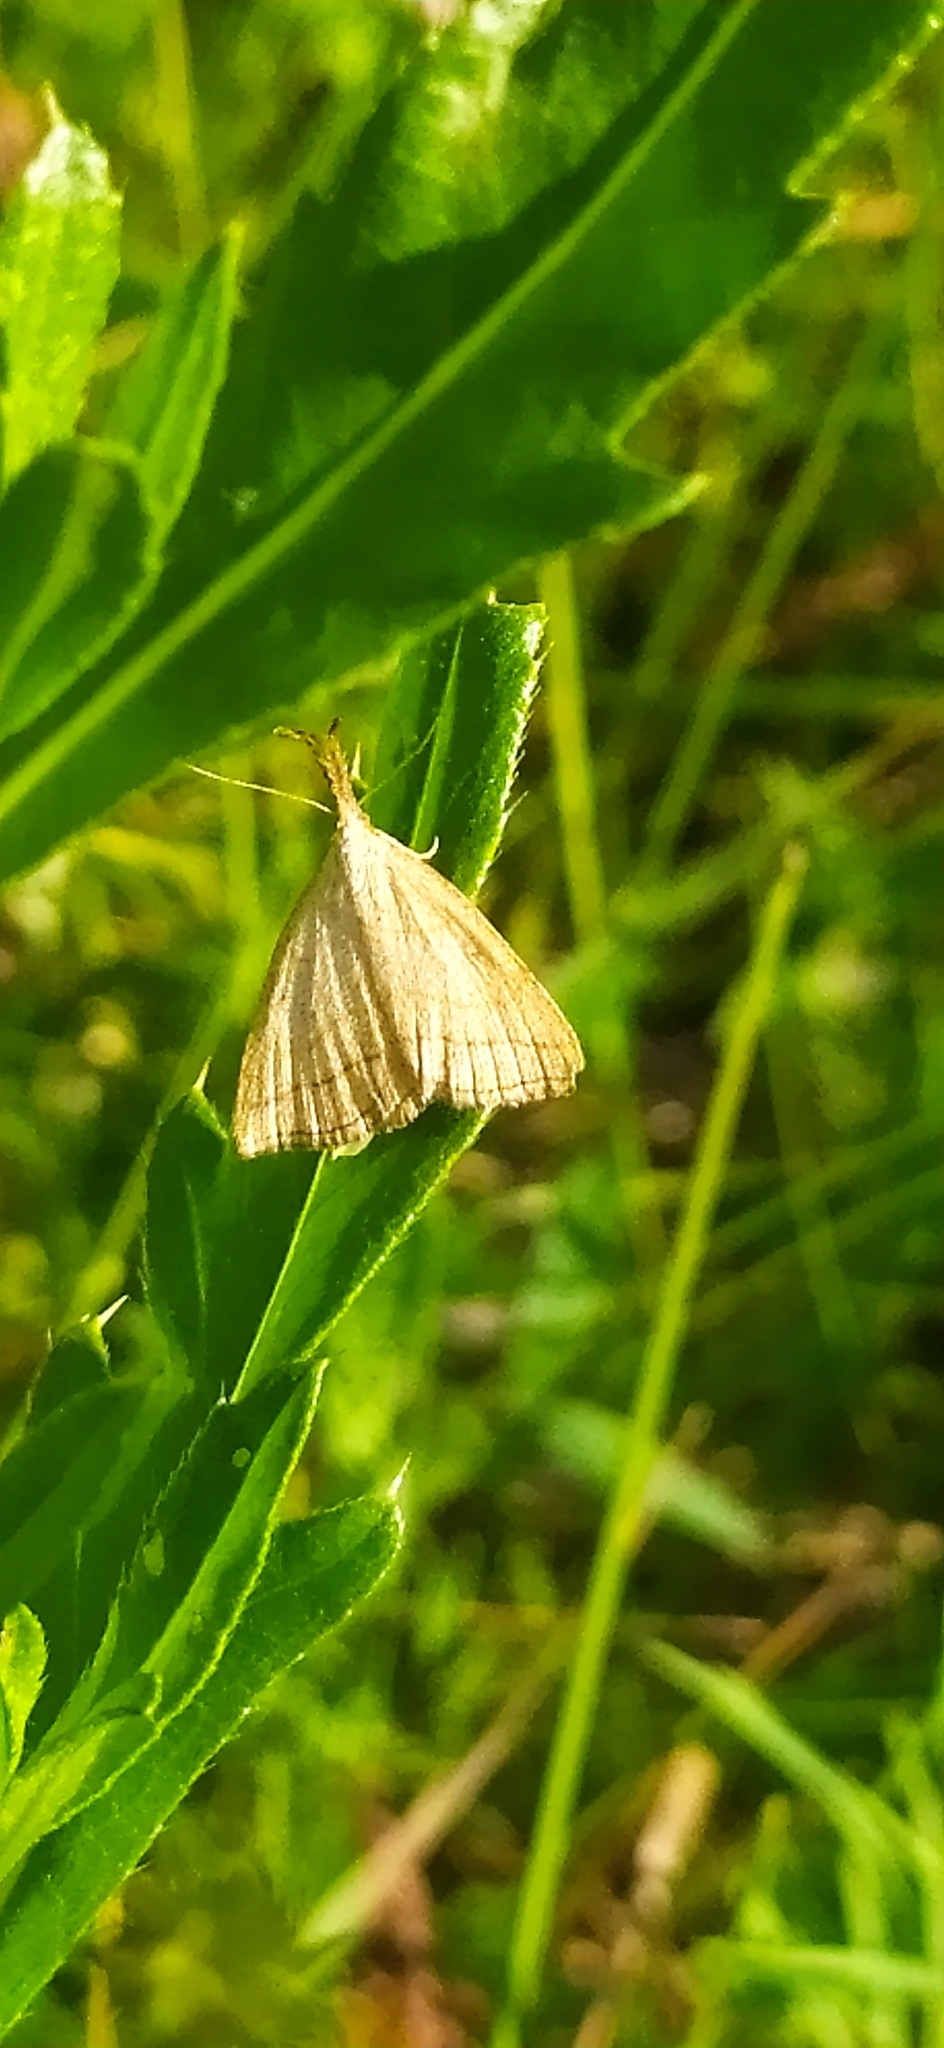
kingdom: Animalia
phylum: Arthropoda
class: Insecta
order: Lepidoptera
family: Erebidae
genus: Polypogon
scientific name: Polypogon tentacularia
